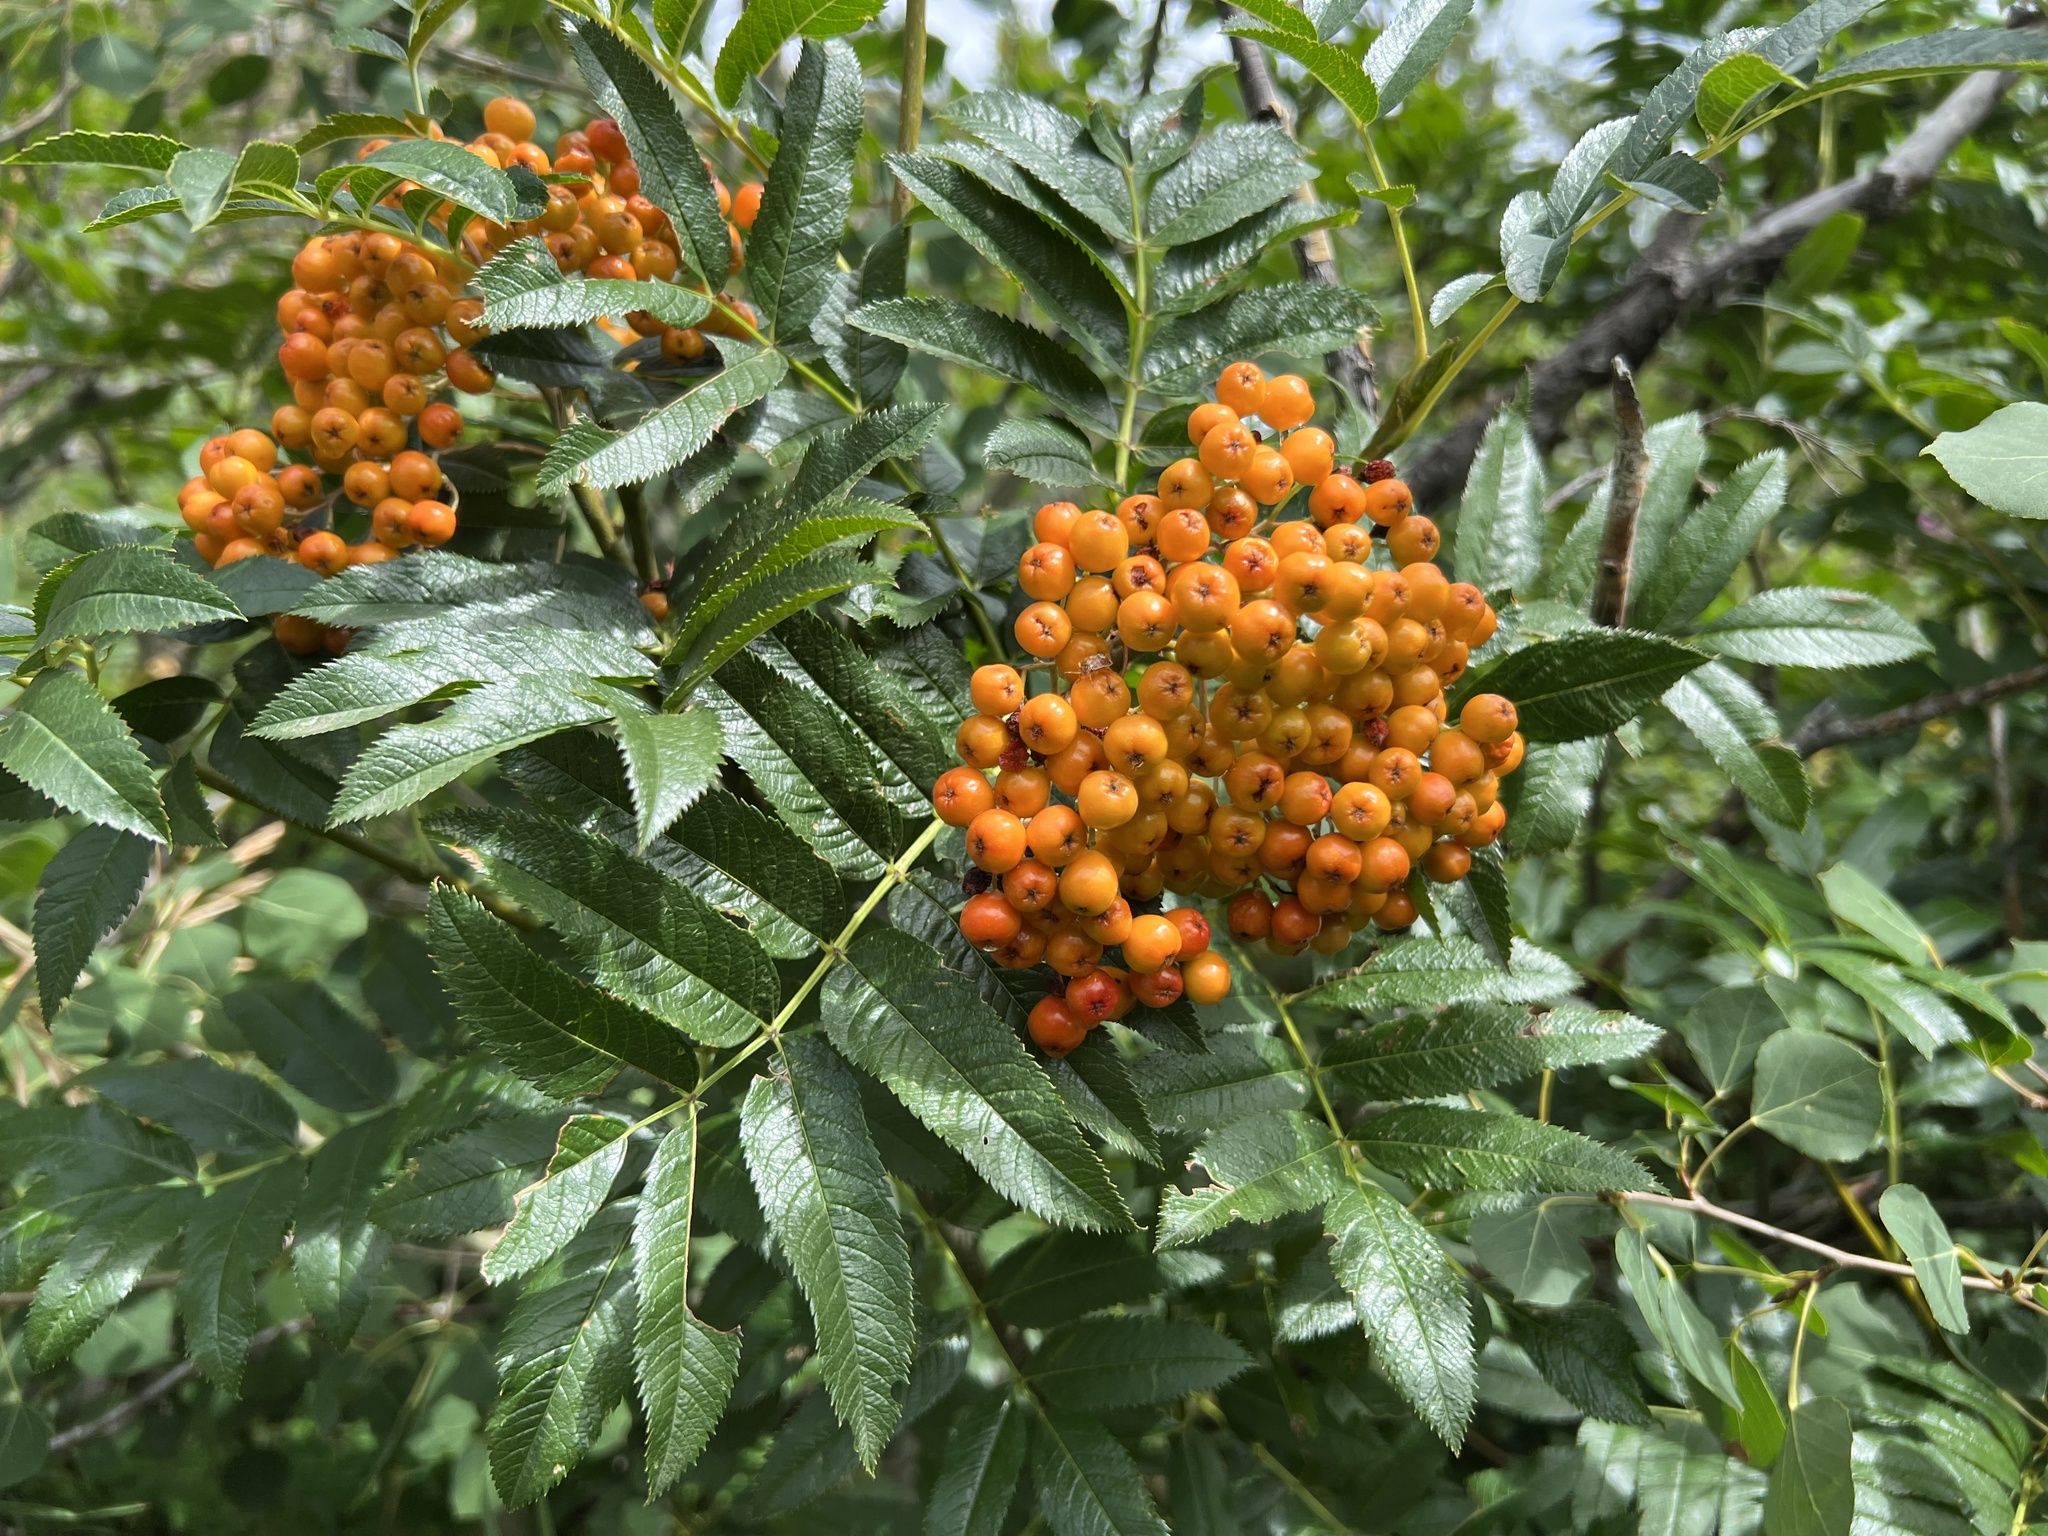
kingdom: Plantae
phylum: Tracheophyta
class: Magnoliopsida
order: Rosales
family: Rosaceae
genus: Sorbus
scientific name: Sorbus aucuparia
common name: Rowan
